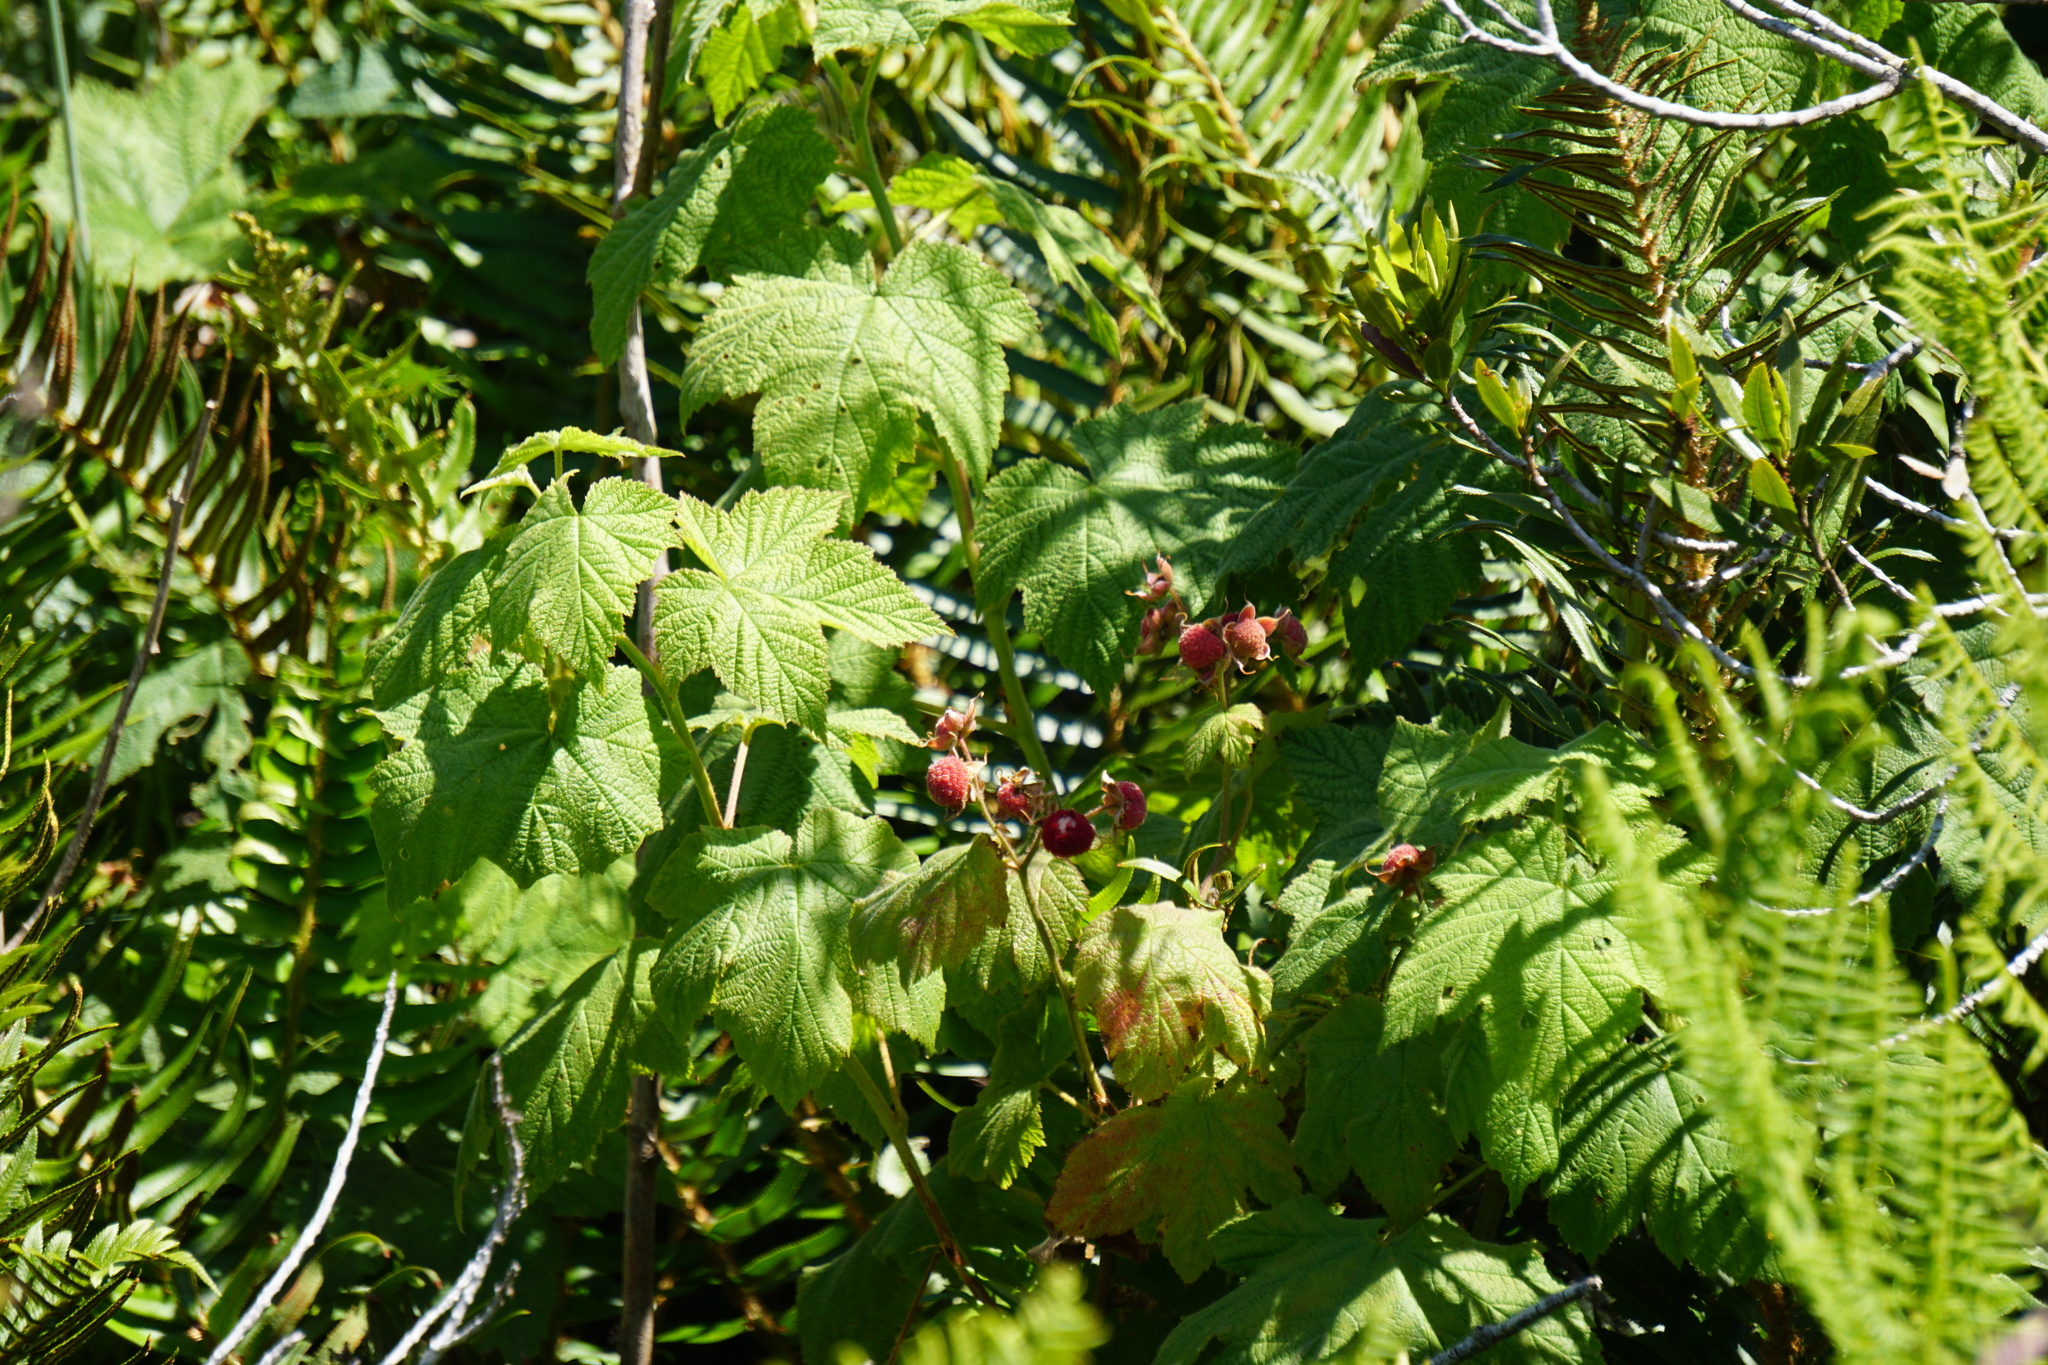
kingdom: Plantae
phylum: Tracheophyta
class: Magnoliopsida
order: Rosales
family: Rosaceae
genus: Rubus
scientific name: Rubus parviflorus
